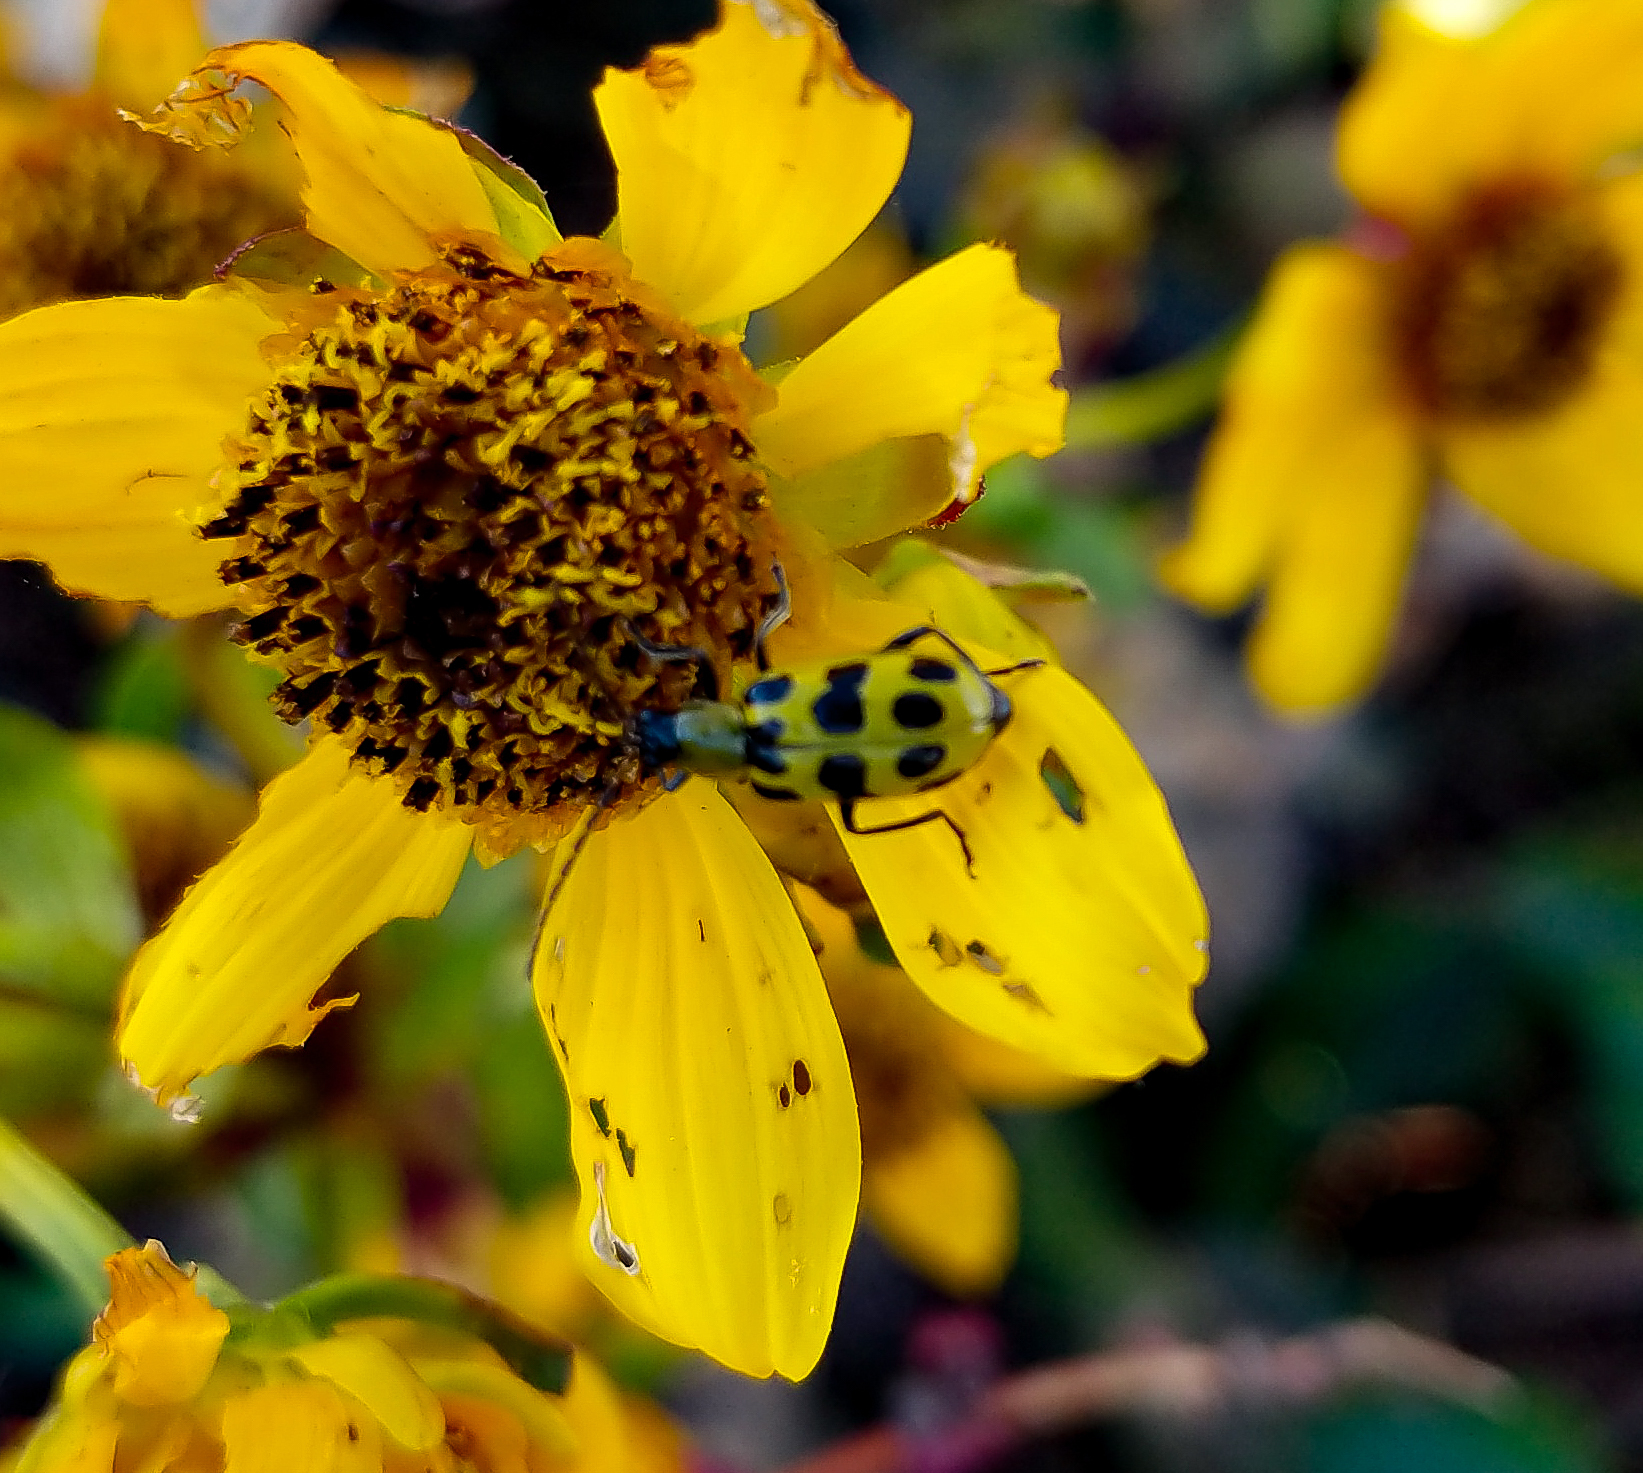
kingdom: Animalia
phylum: Arthropoda
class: Insecta
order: Coleoptera
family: Chrysomelidae
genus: Diabrotica
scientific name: Diabrotica undecimpunctata
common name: Spotted cucumber beetle
